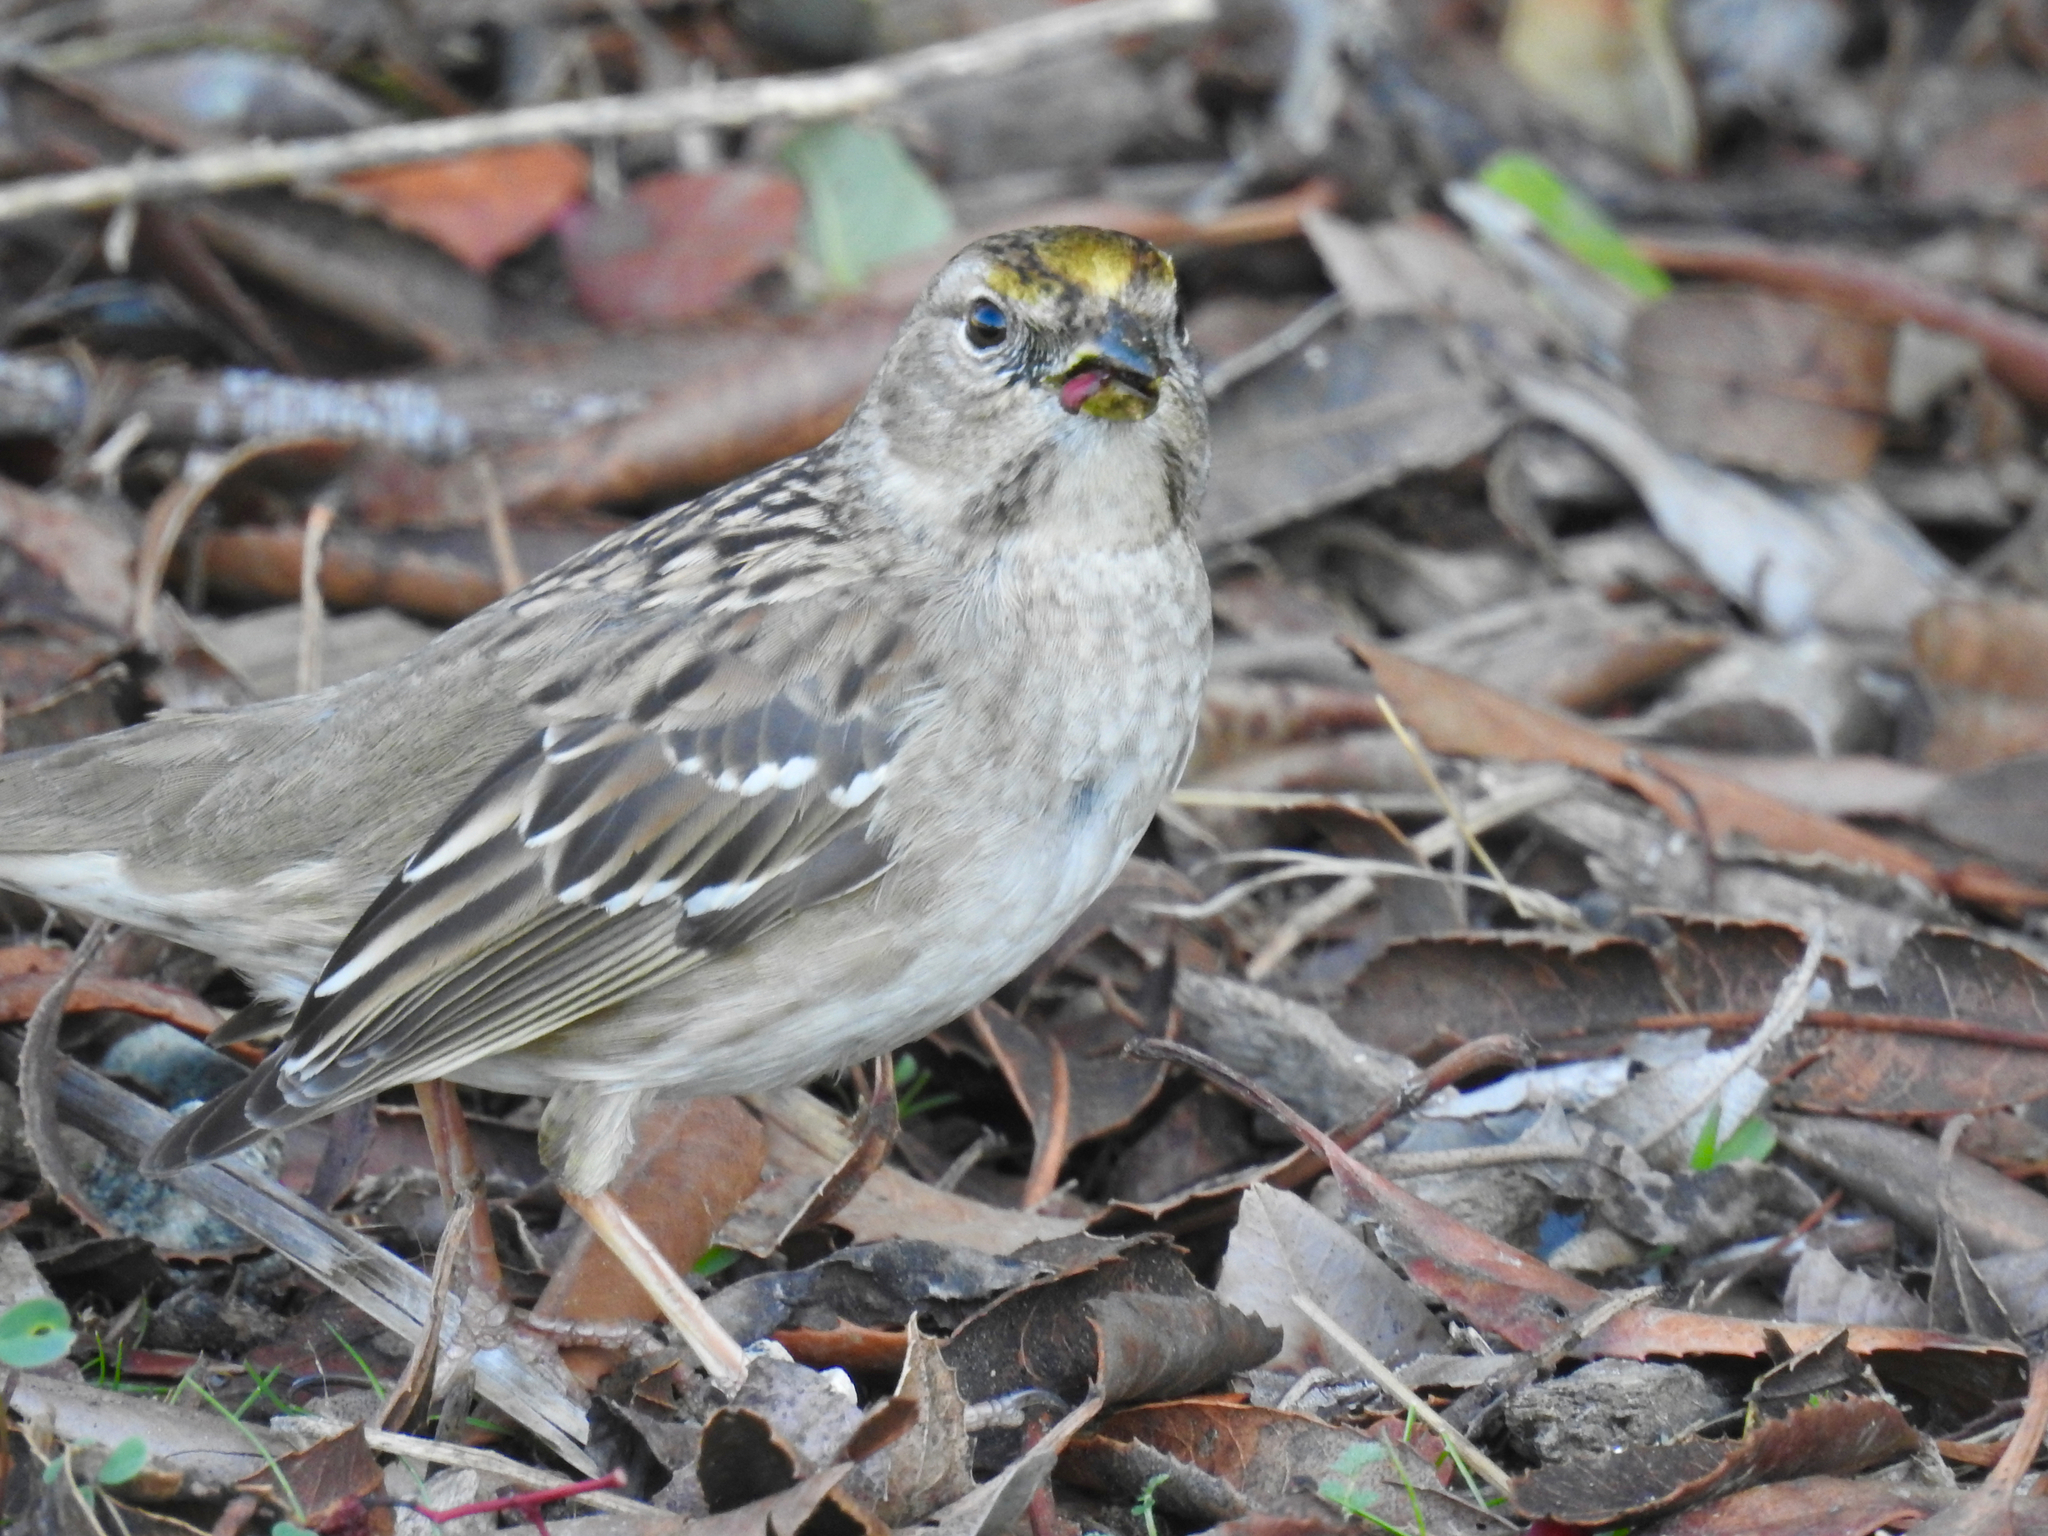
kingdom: Animalia
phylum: Chordata
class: Aves
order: Passeriformes
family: Passerellidae
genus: Zonotrichia
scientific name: Zonotrichia atricapilla
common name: Golden-crowned sparrow
